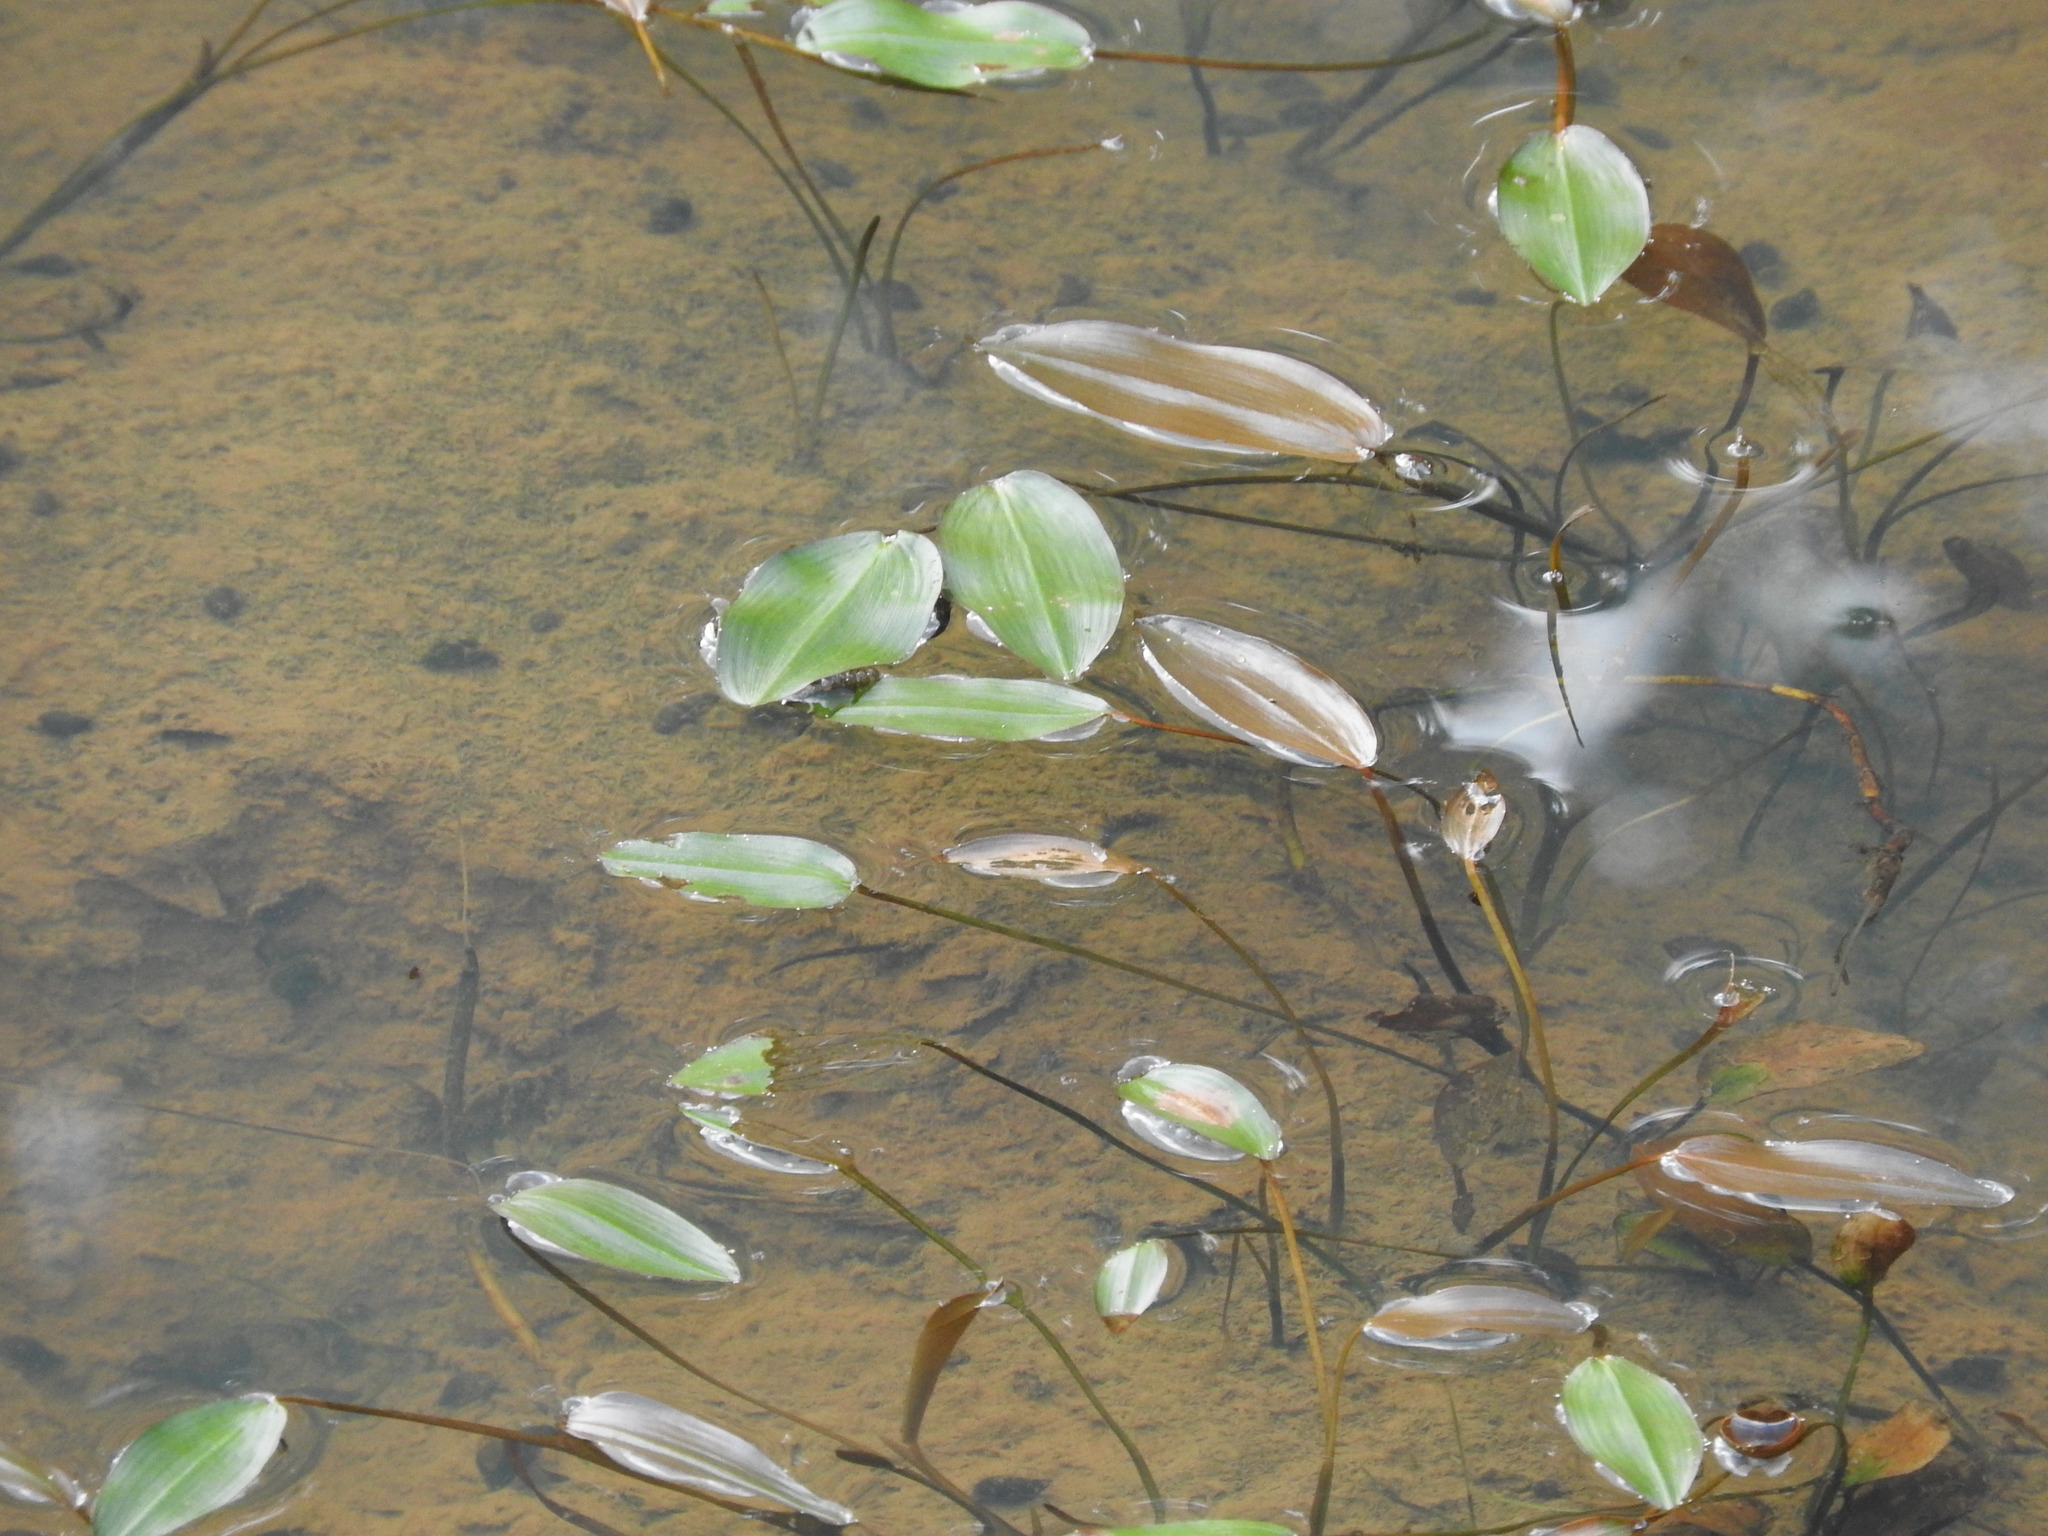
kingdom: Plantae
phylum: Tracheophyta
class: Liliopsida
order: Alismatales
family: Potamogetonaceae
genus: Potamogeton
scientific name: Potamogeton natans
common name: Broad-leaved pondweed
